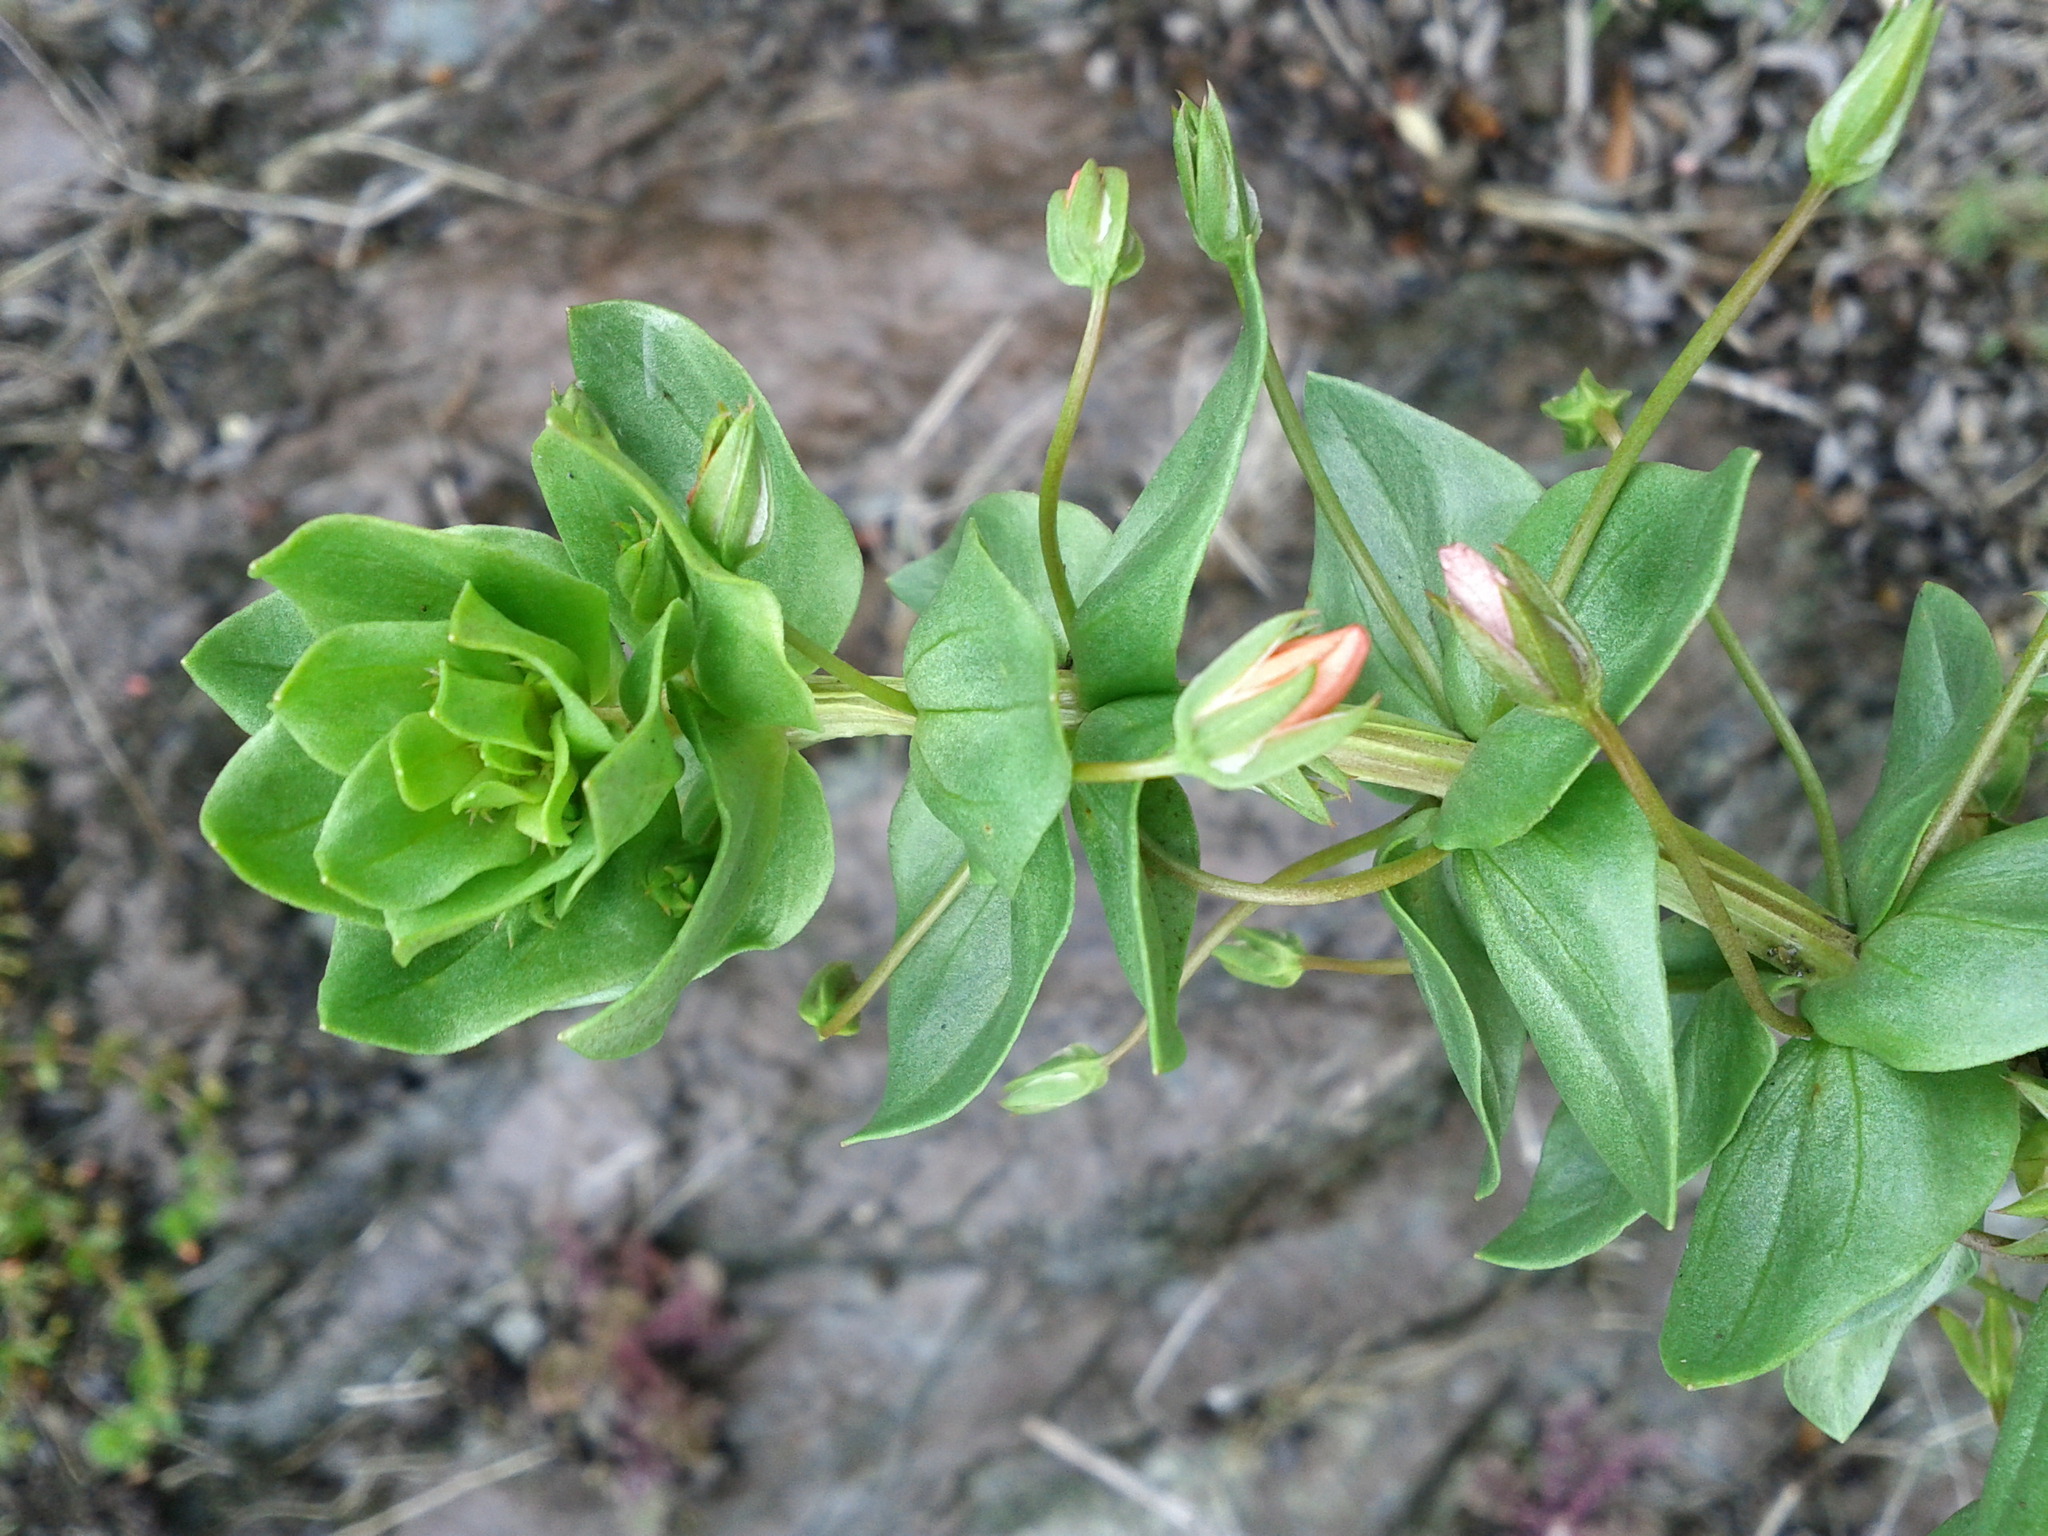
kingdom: Plantae
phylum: Tracheophyta
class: Magnoliopsida
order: Ericales
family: Primulaceae
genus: Lysimachia
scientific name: Lysimachia arvensis
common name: Scarlet pimpernel
